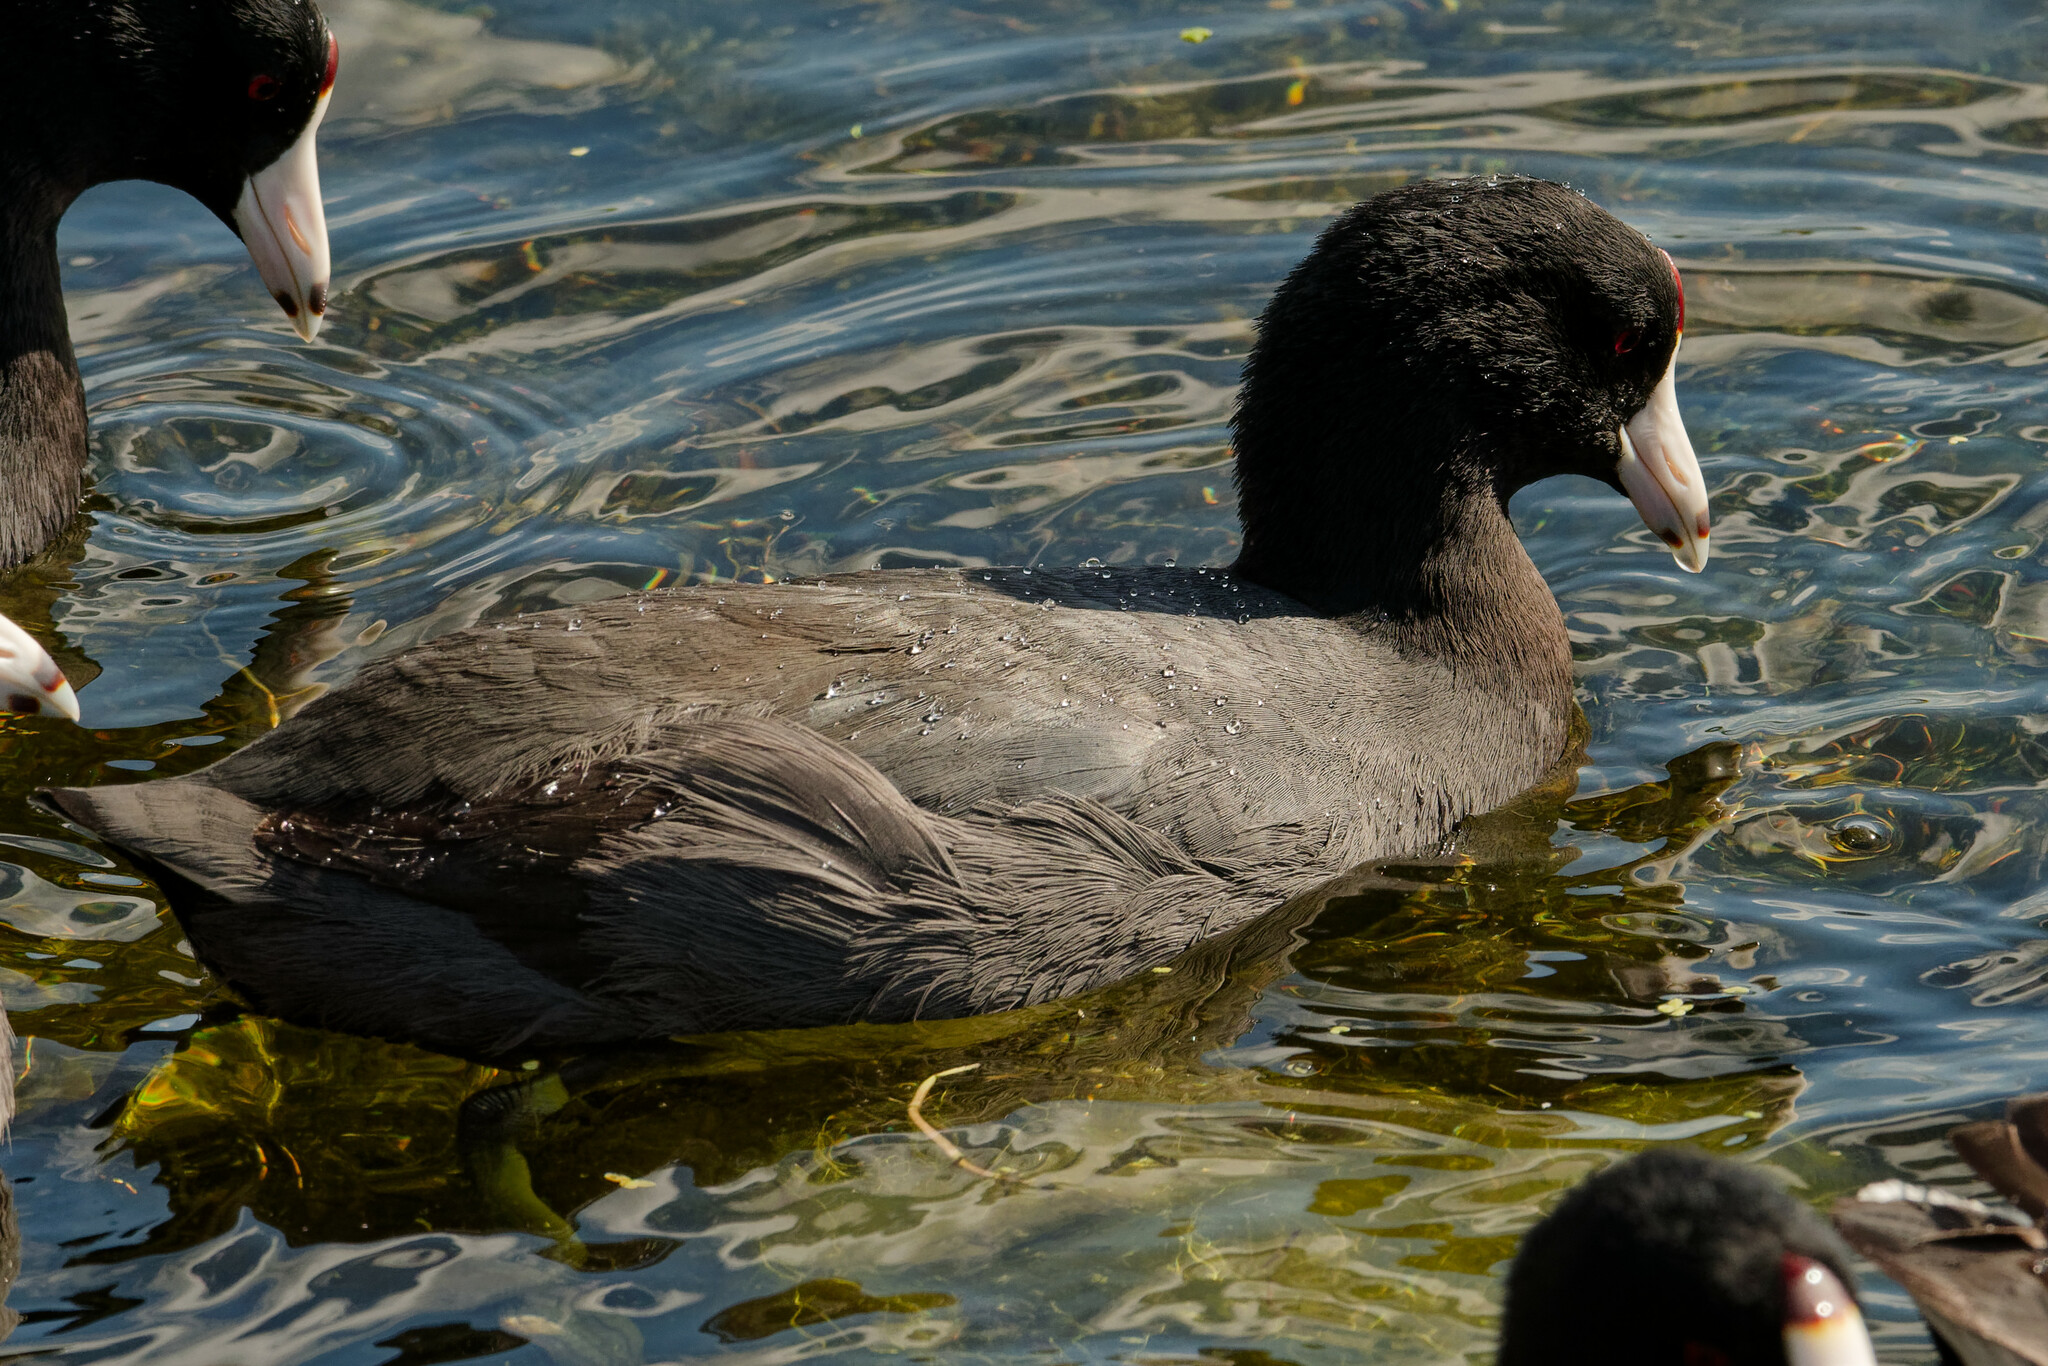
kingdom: Animalia
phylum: Chordata
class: Aves
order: Gruiformes
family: Rallidae
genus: Fulica
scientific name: Fulica americana
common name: American coot
